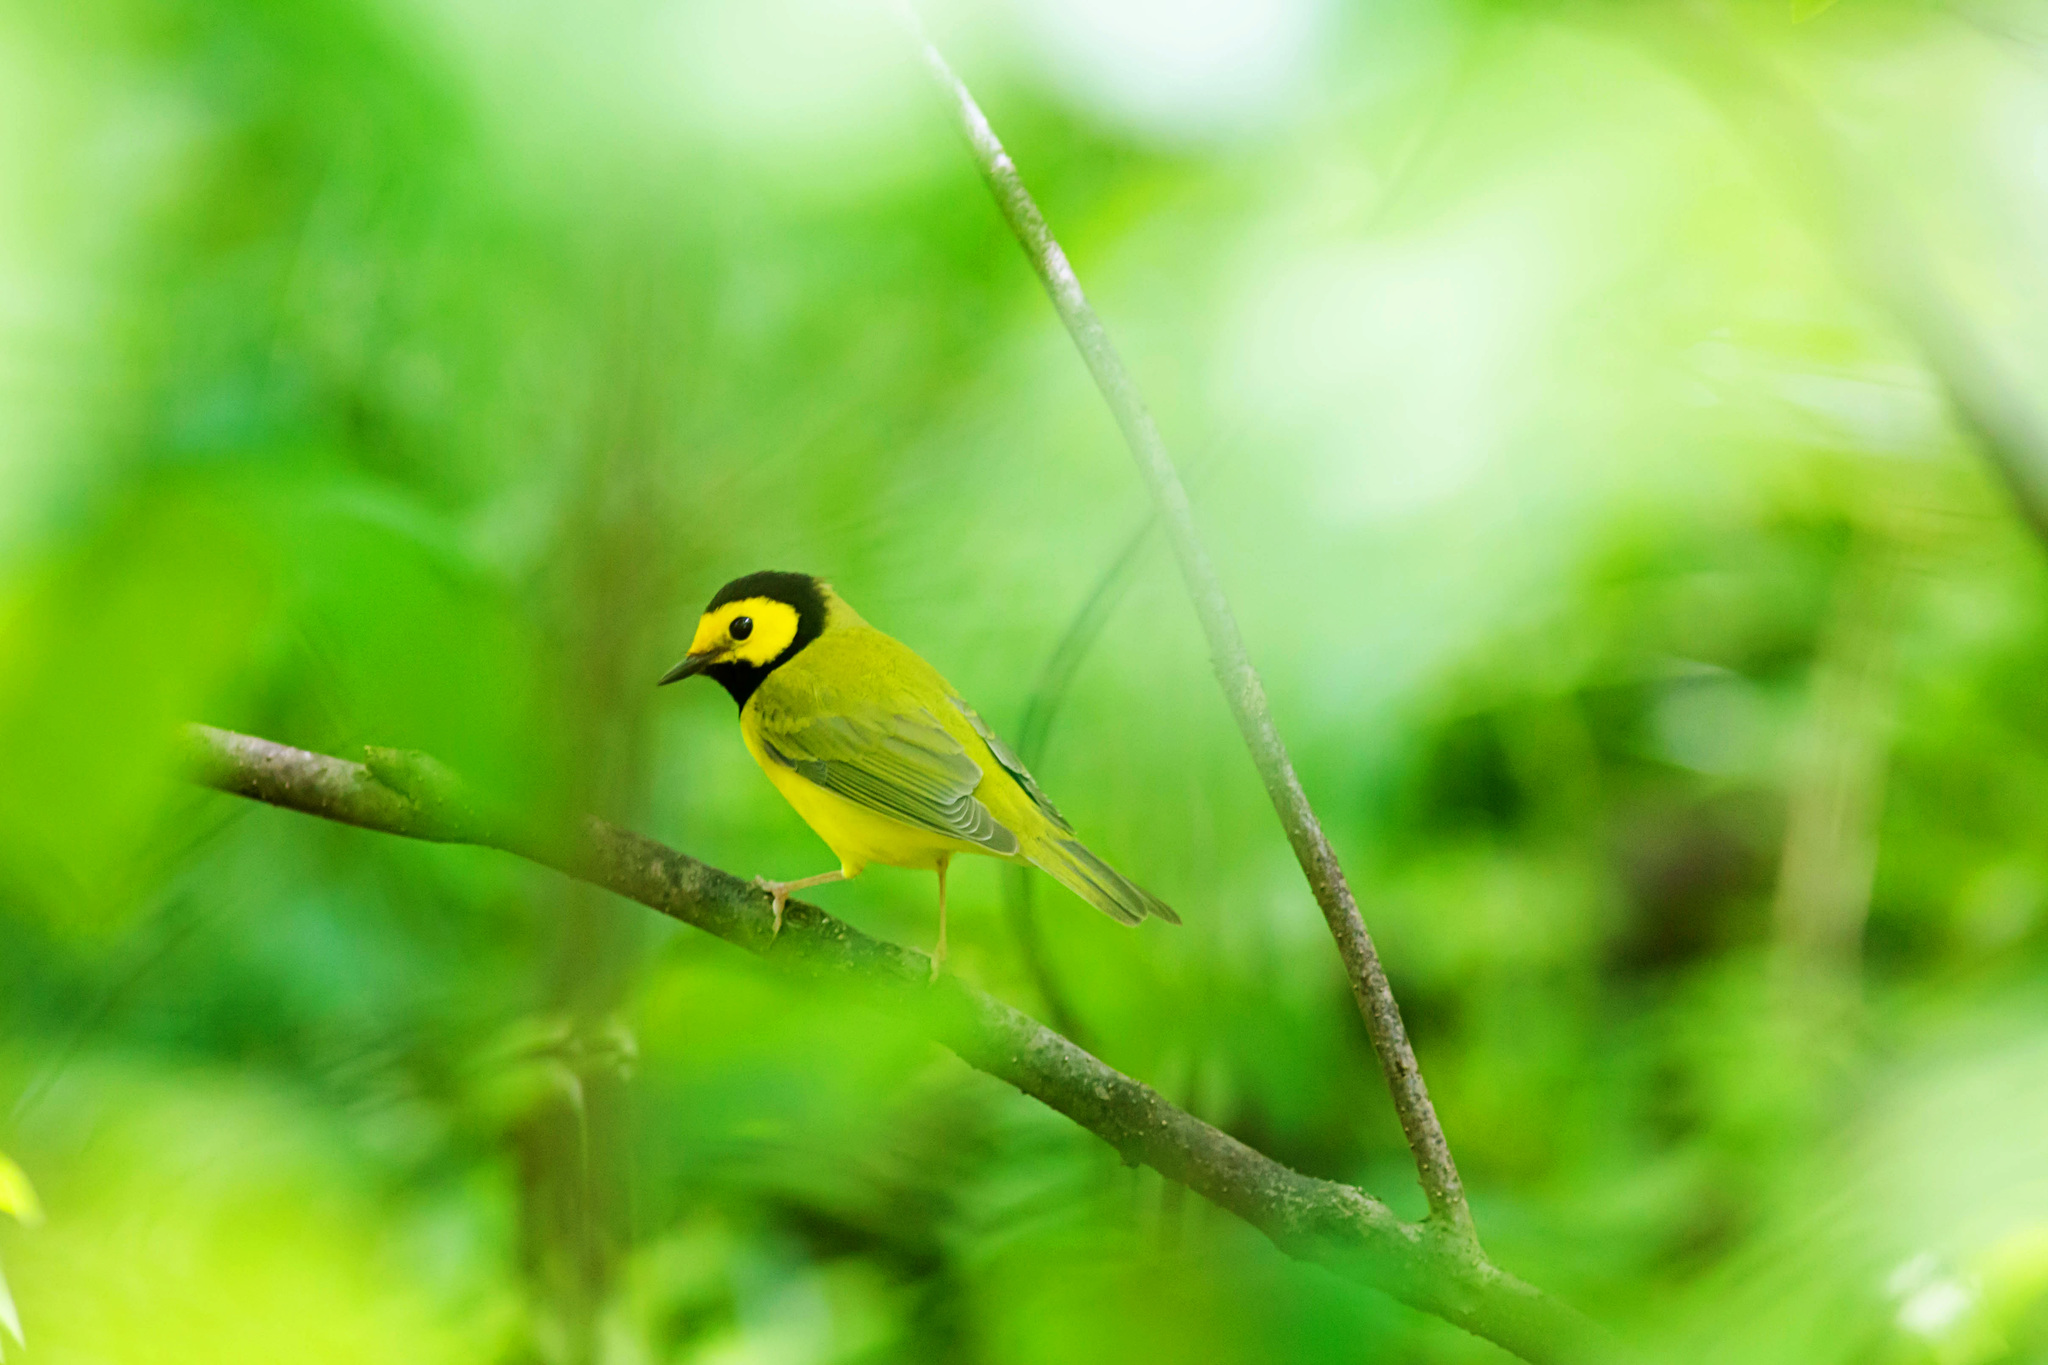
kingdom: Animalia
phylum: Chordata
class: Aves
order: Passeriformes
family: Parulidae
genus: Setophaga
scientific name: Setophaga citrina
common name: Hooded warbler
